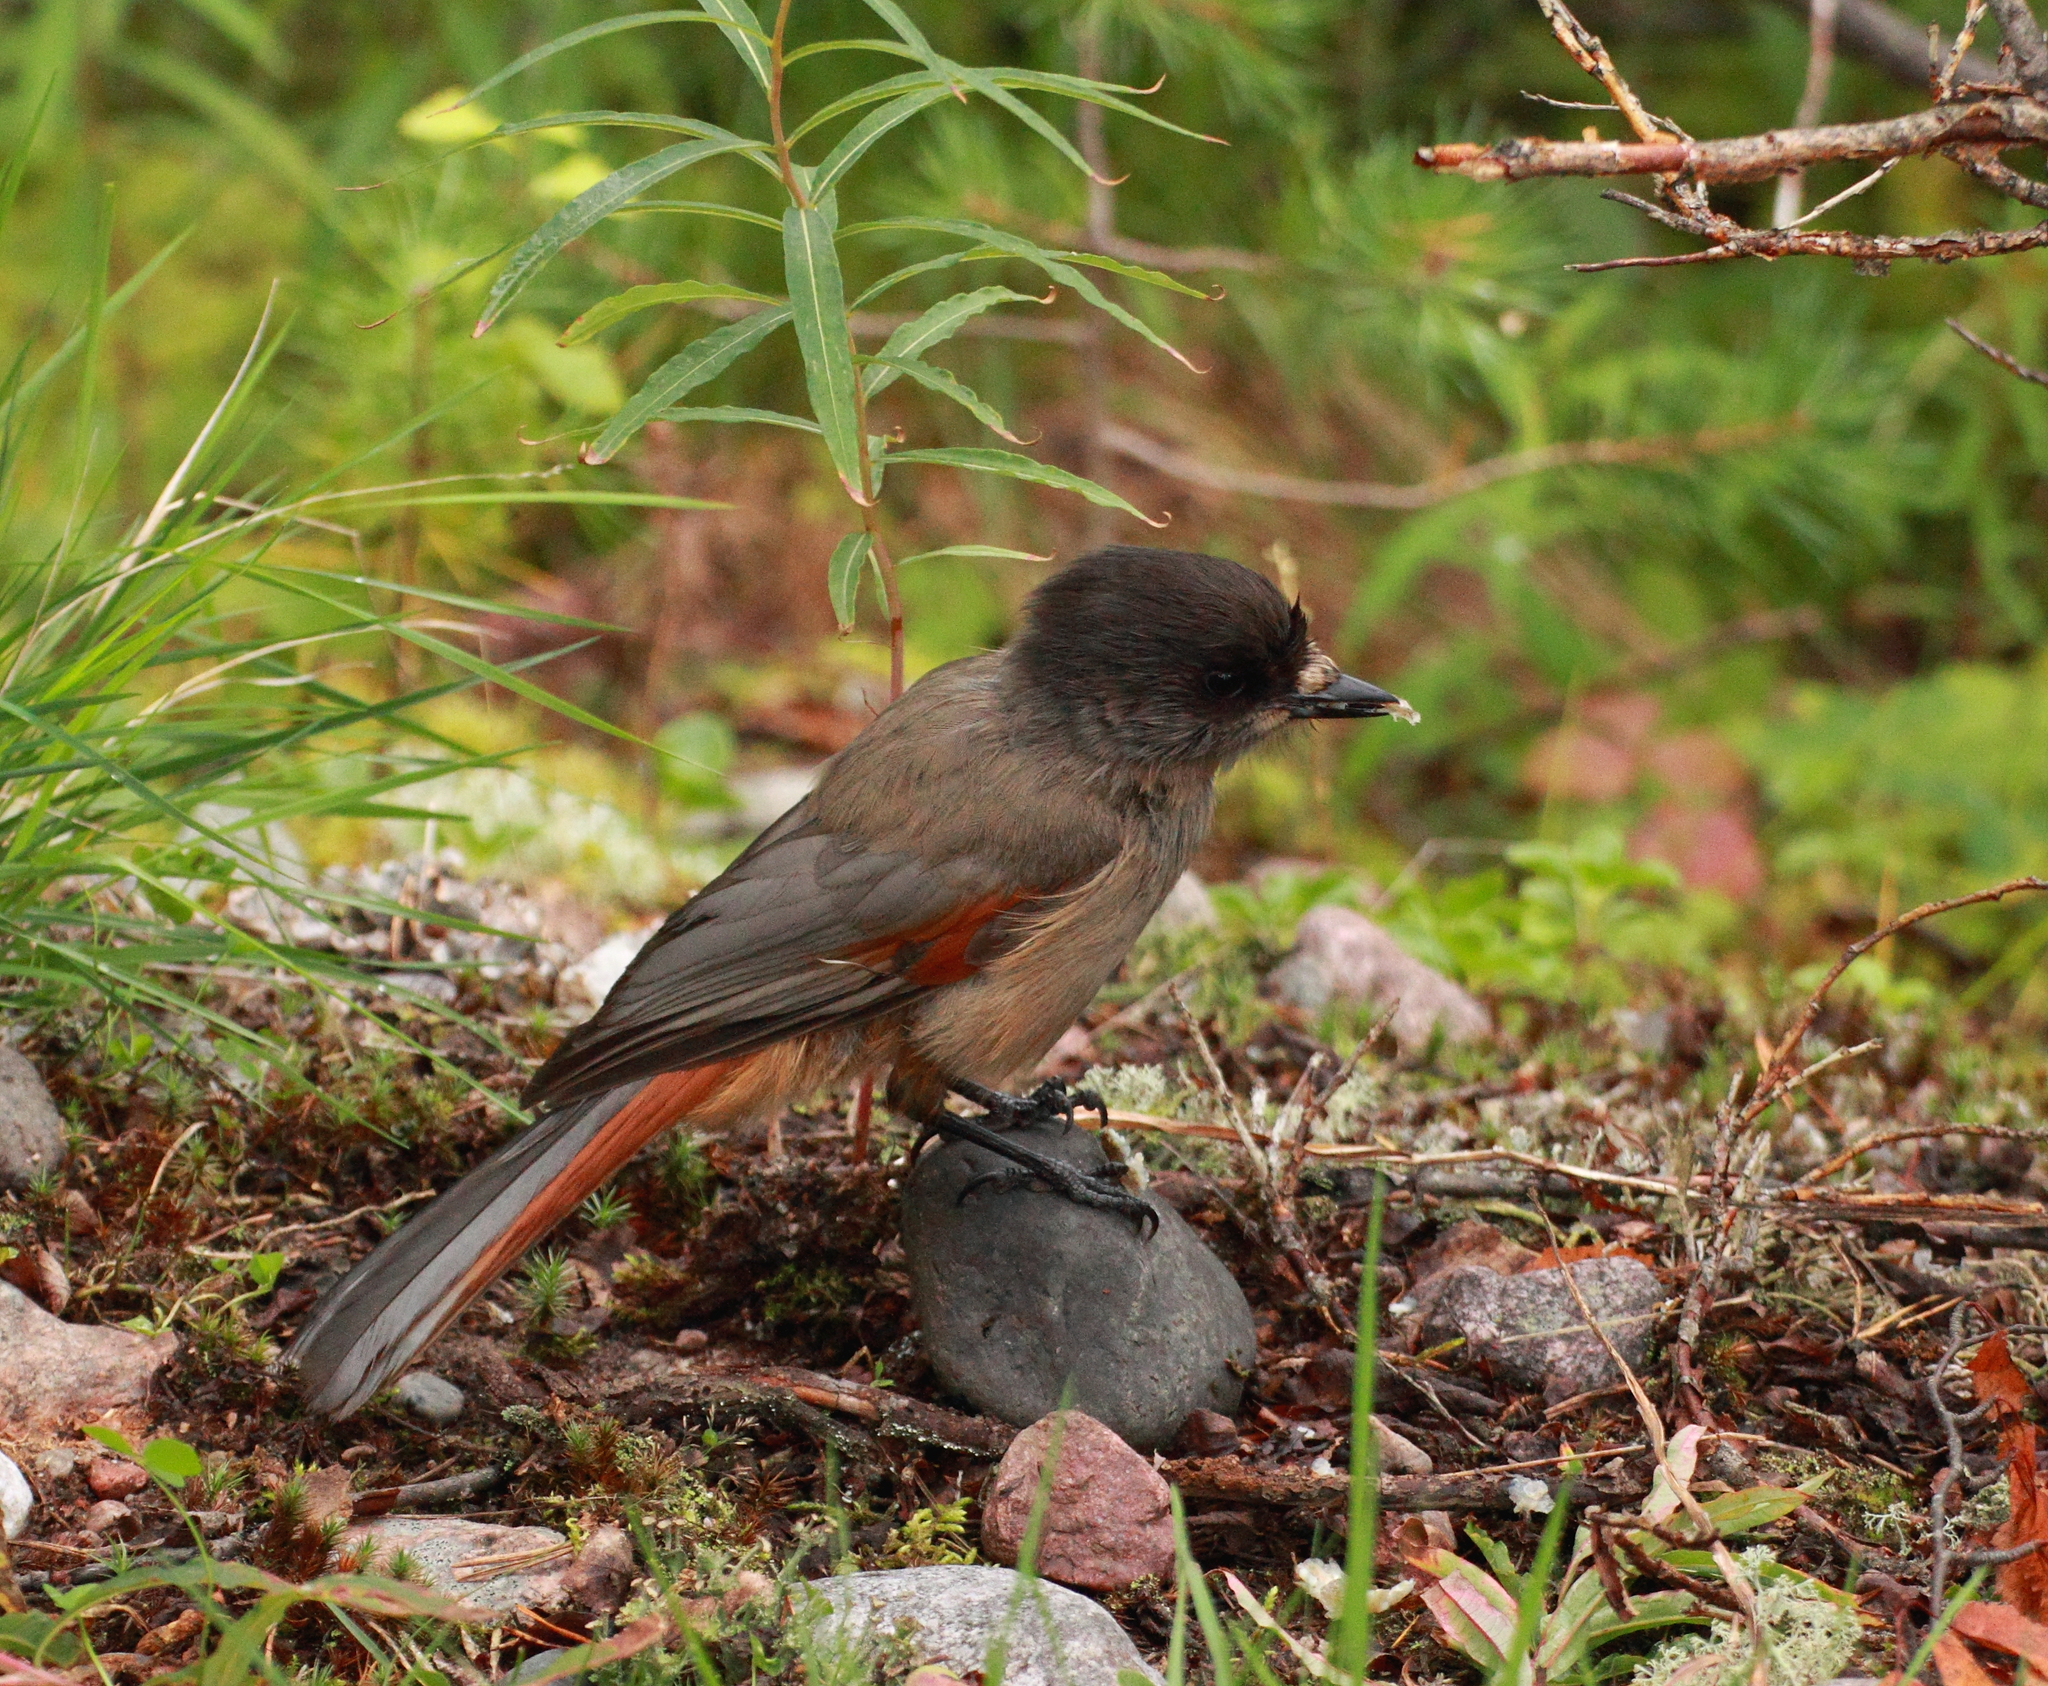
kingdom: Animalia
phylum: Chordata
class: Aves
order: Passeriformes
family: Corvidae
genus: Perisoreus
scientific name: Perisoreus infaustus
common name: Siberian jay
